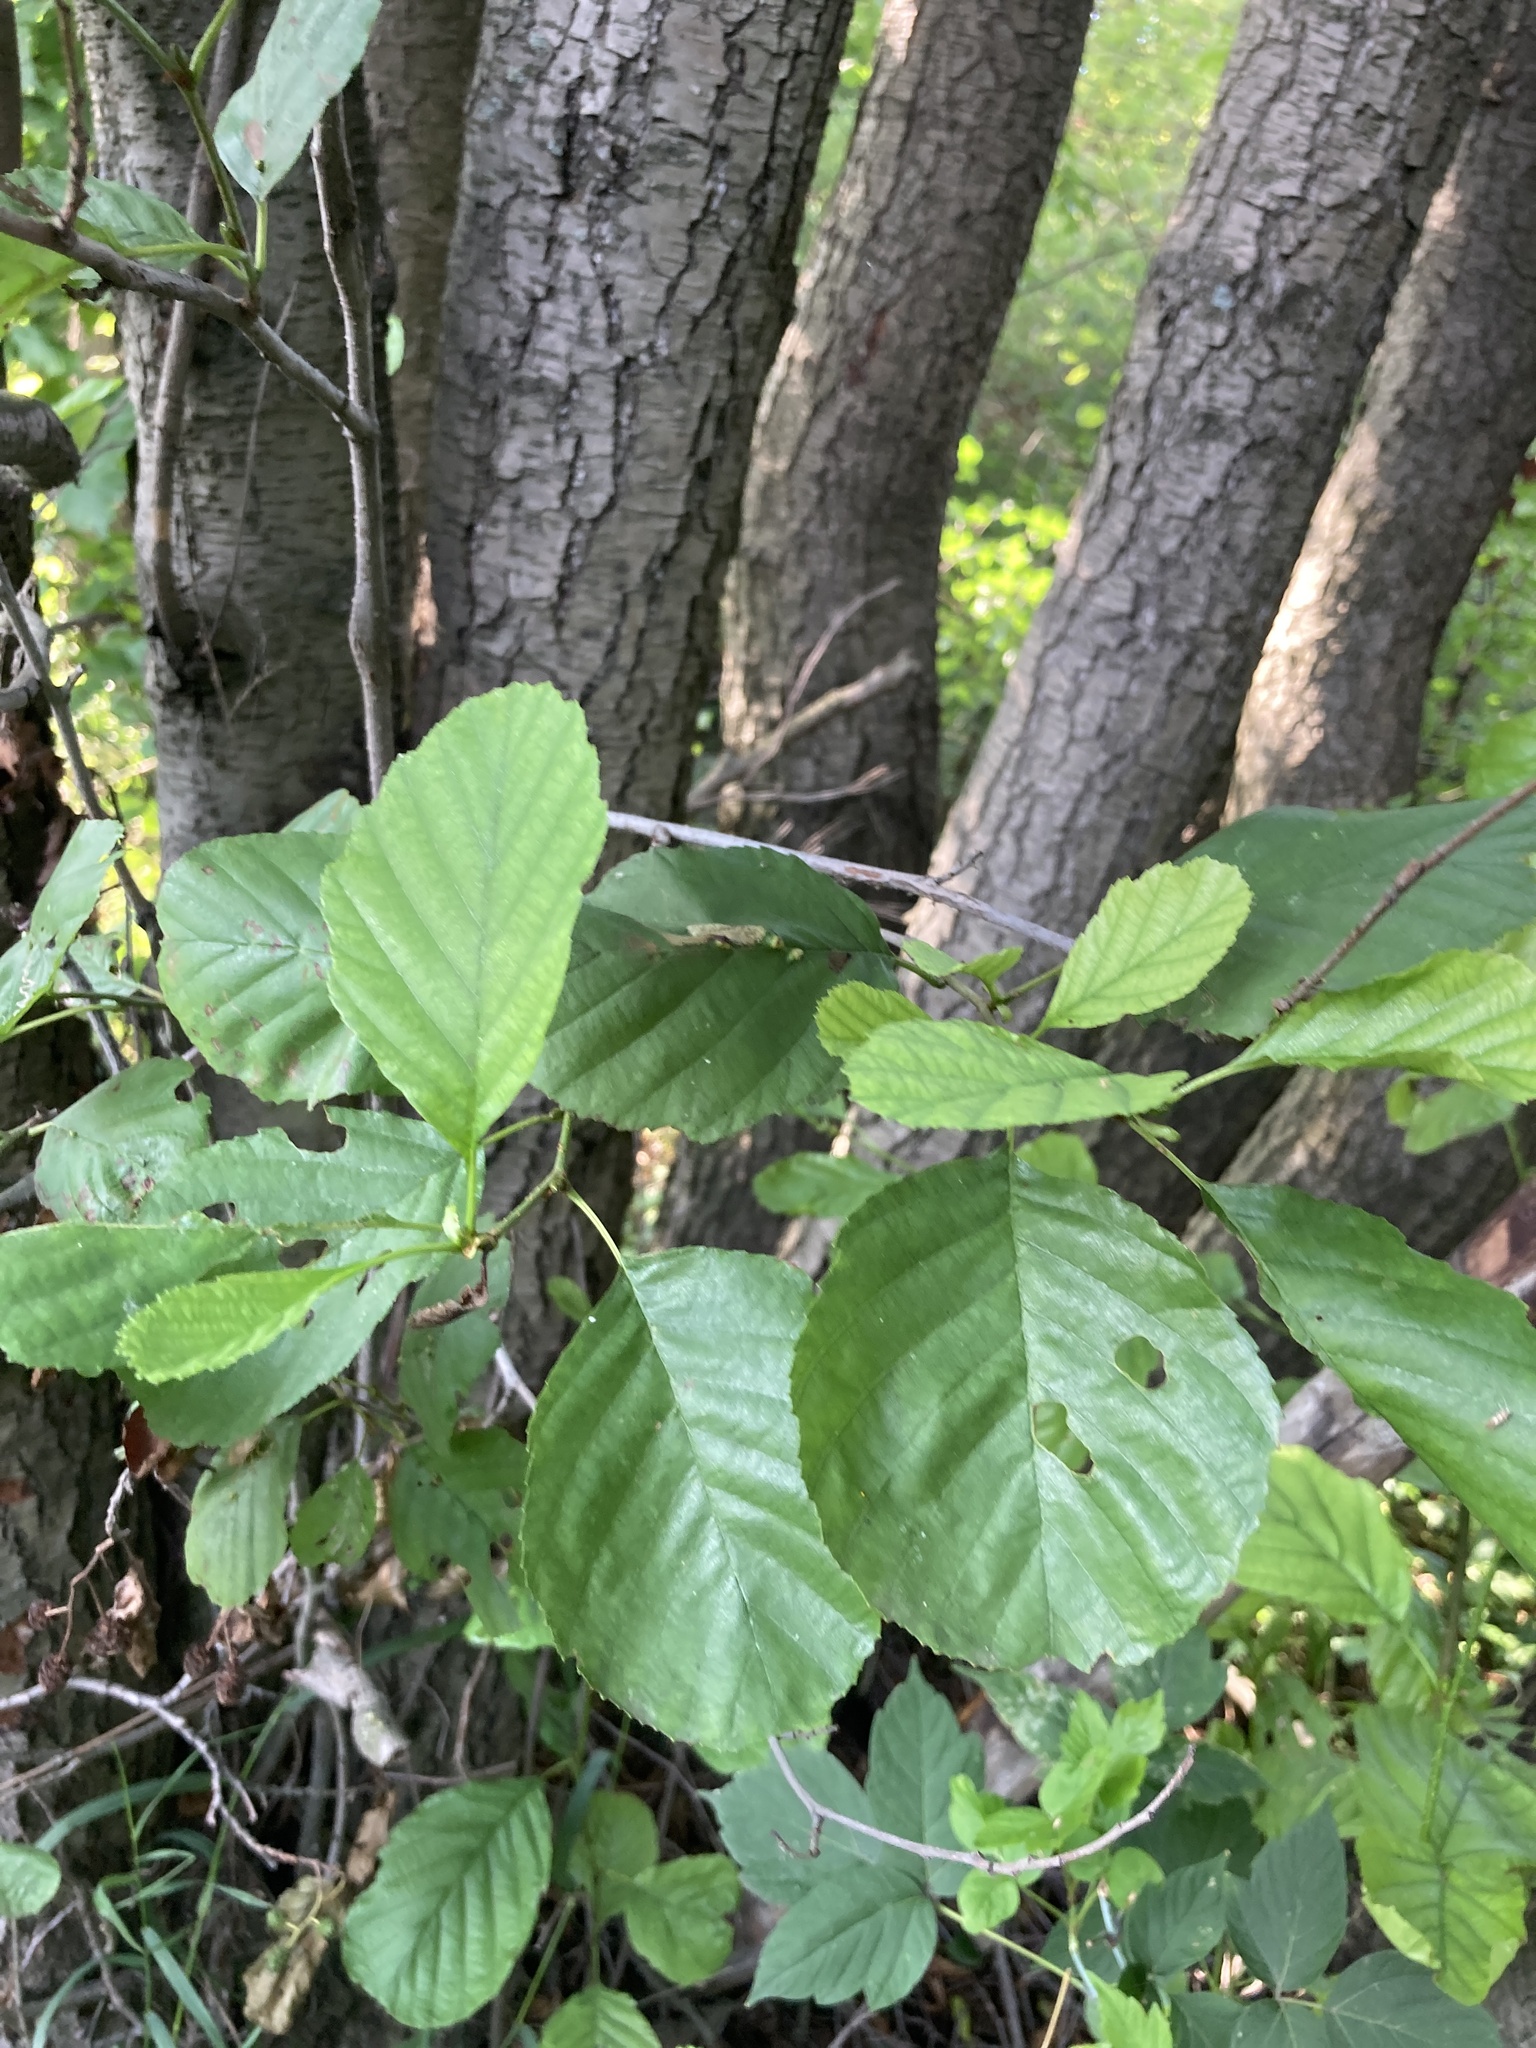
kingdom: Plantae
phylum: Tracheophyta
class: Magnoliopsida
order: Fagales
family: Betulaceae
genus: Alnus
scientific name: Alnus glutinosa
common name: Black alder
